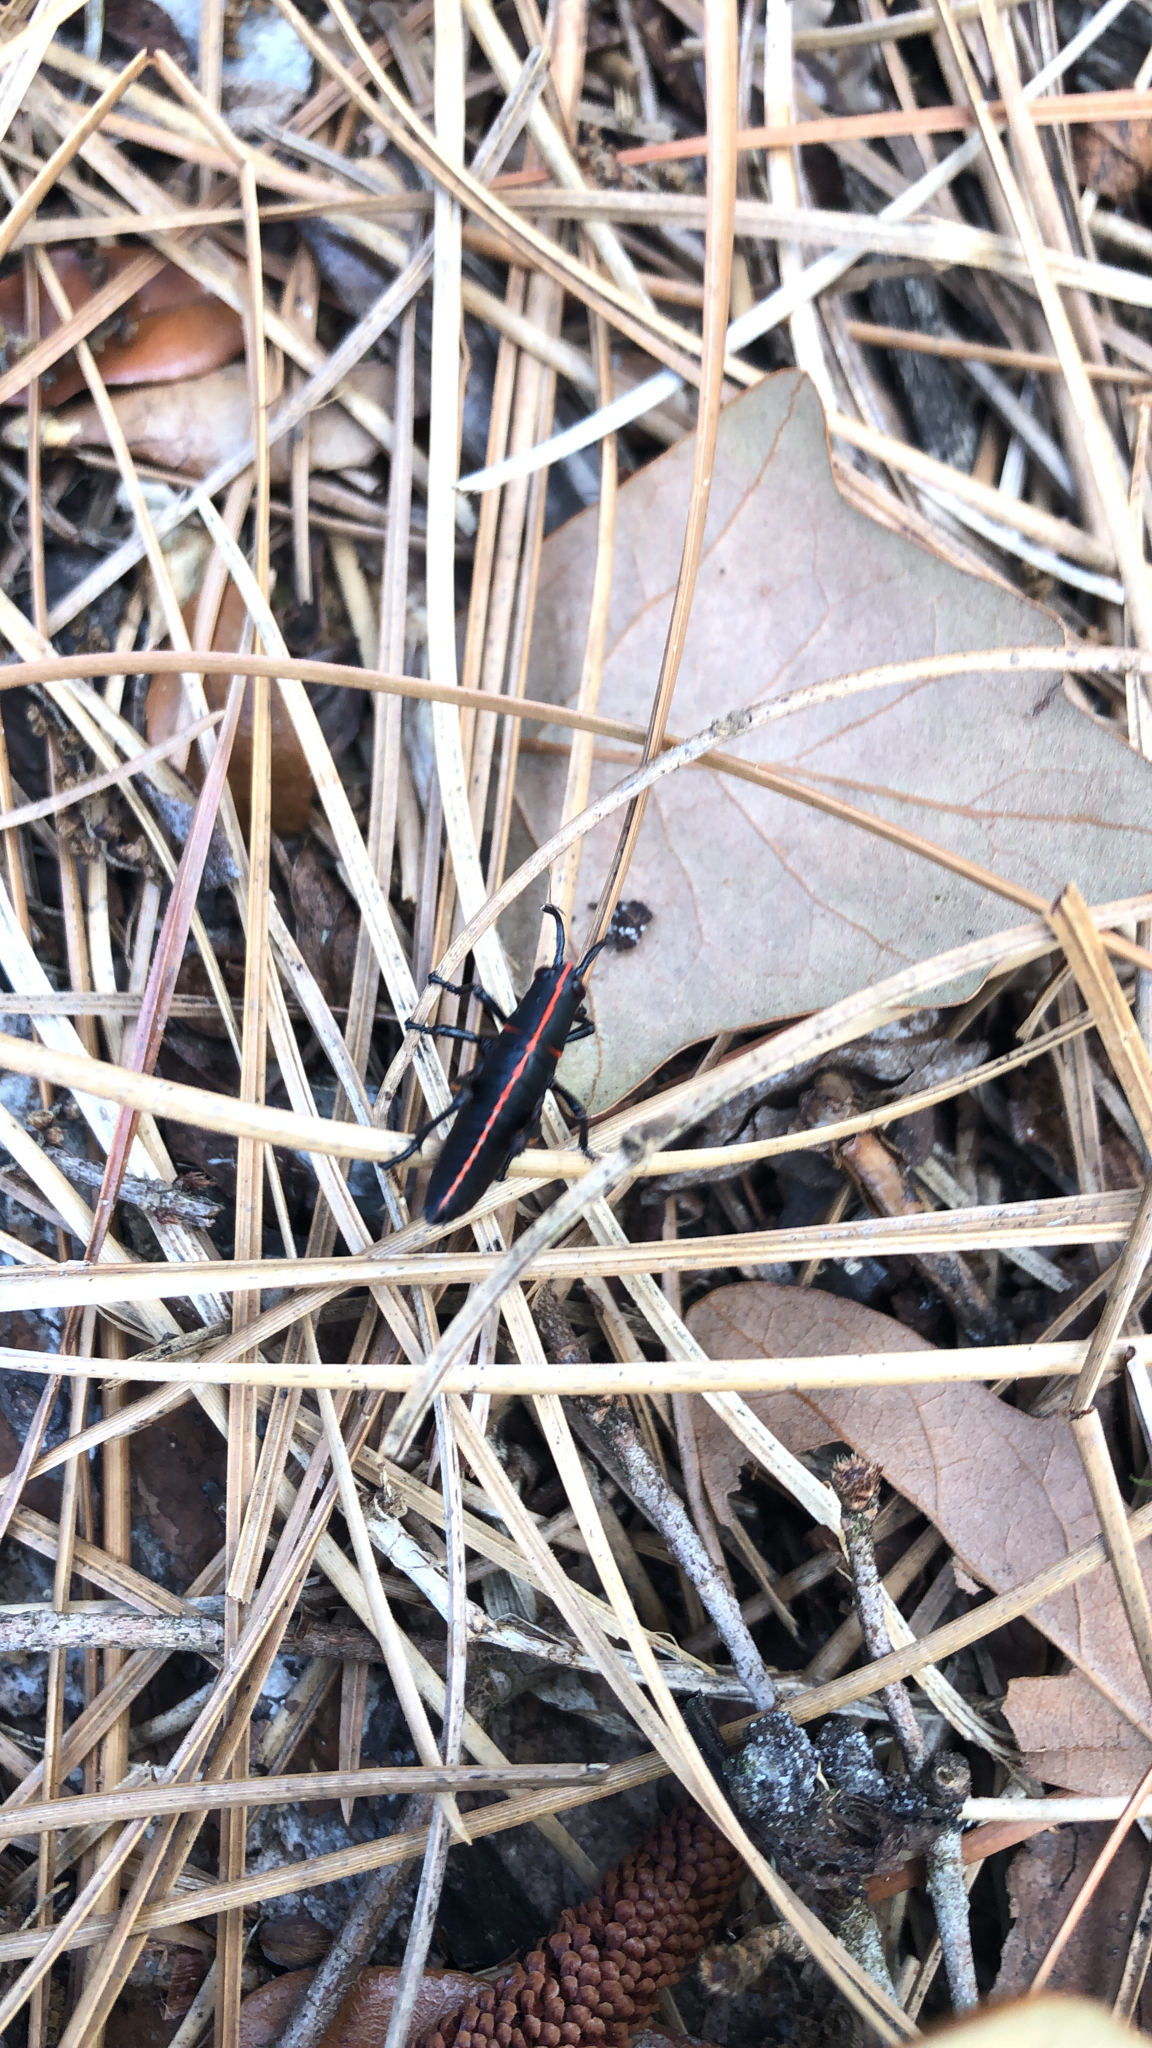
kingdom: Animalia
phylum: Arthropoda
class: Insecta
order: Orthoptera
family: Romaleidae
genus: Romalea
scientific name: Romalea microptera
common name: Eastern lubber grasshopper
